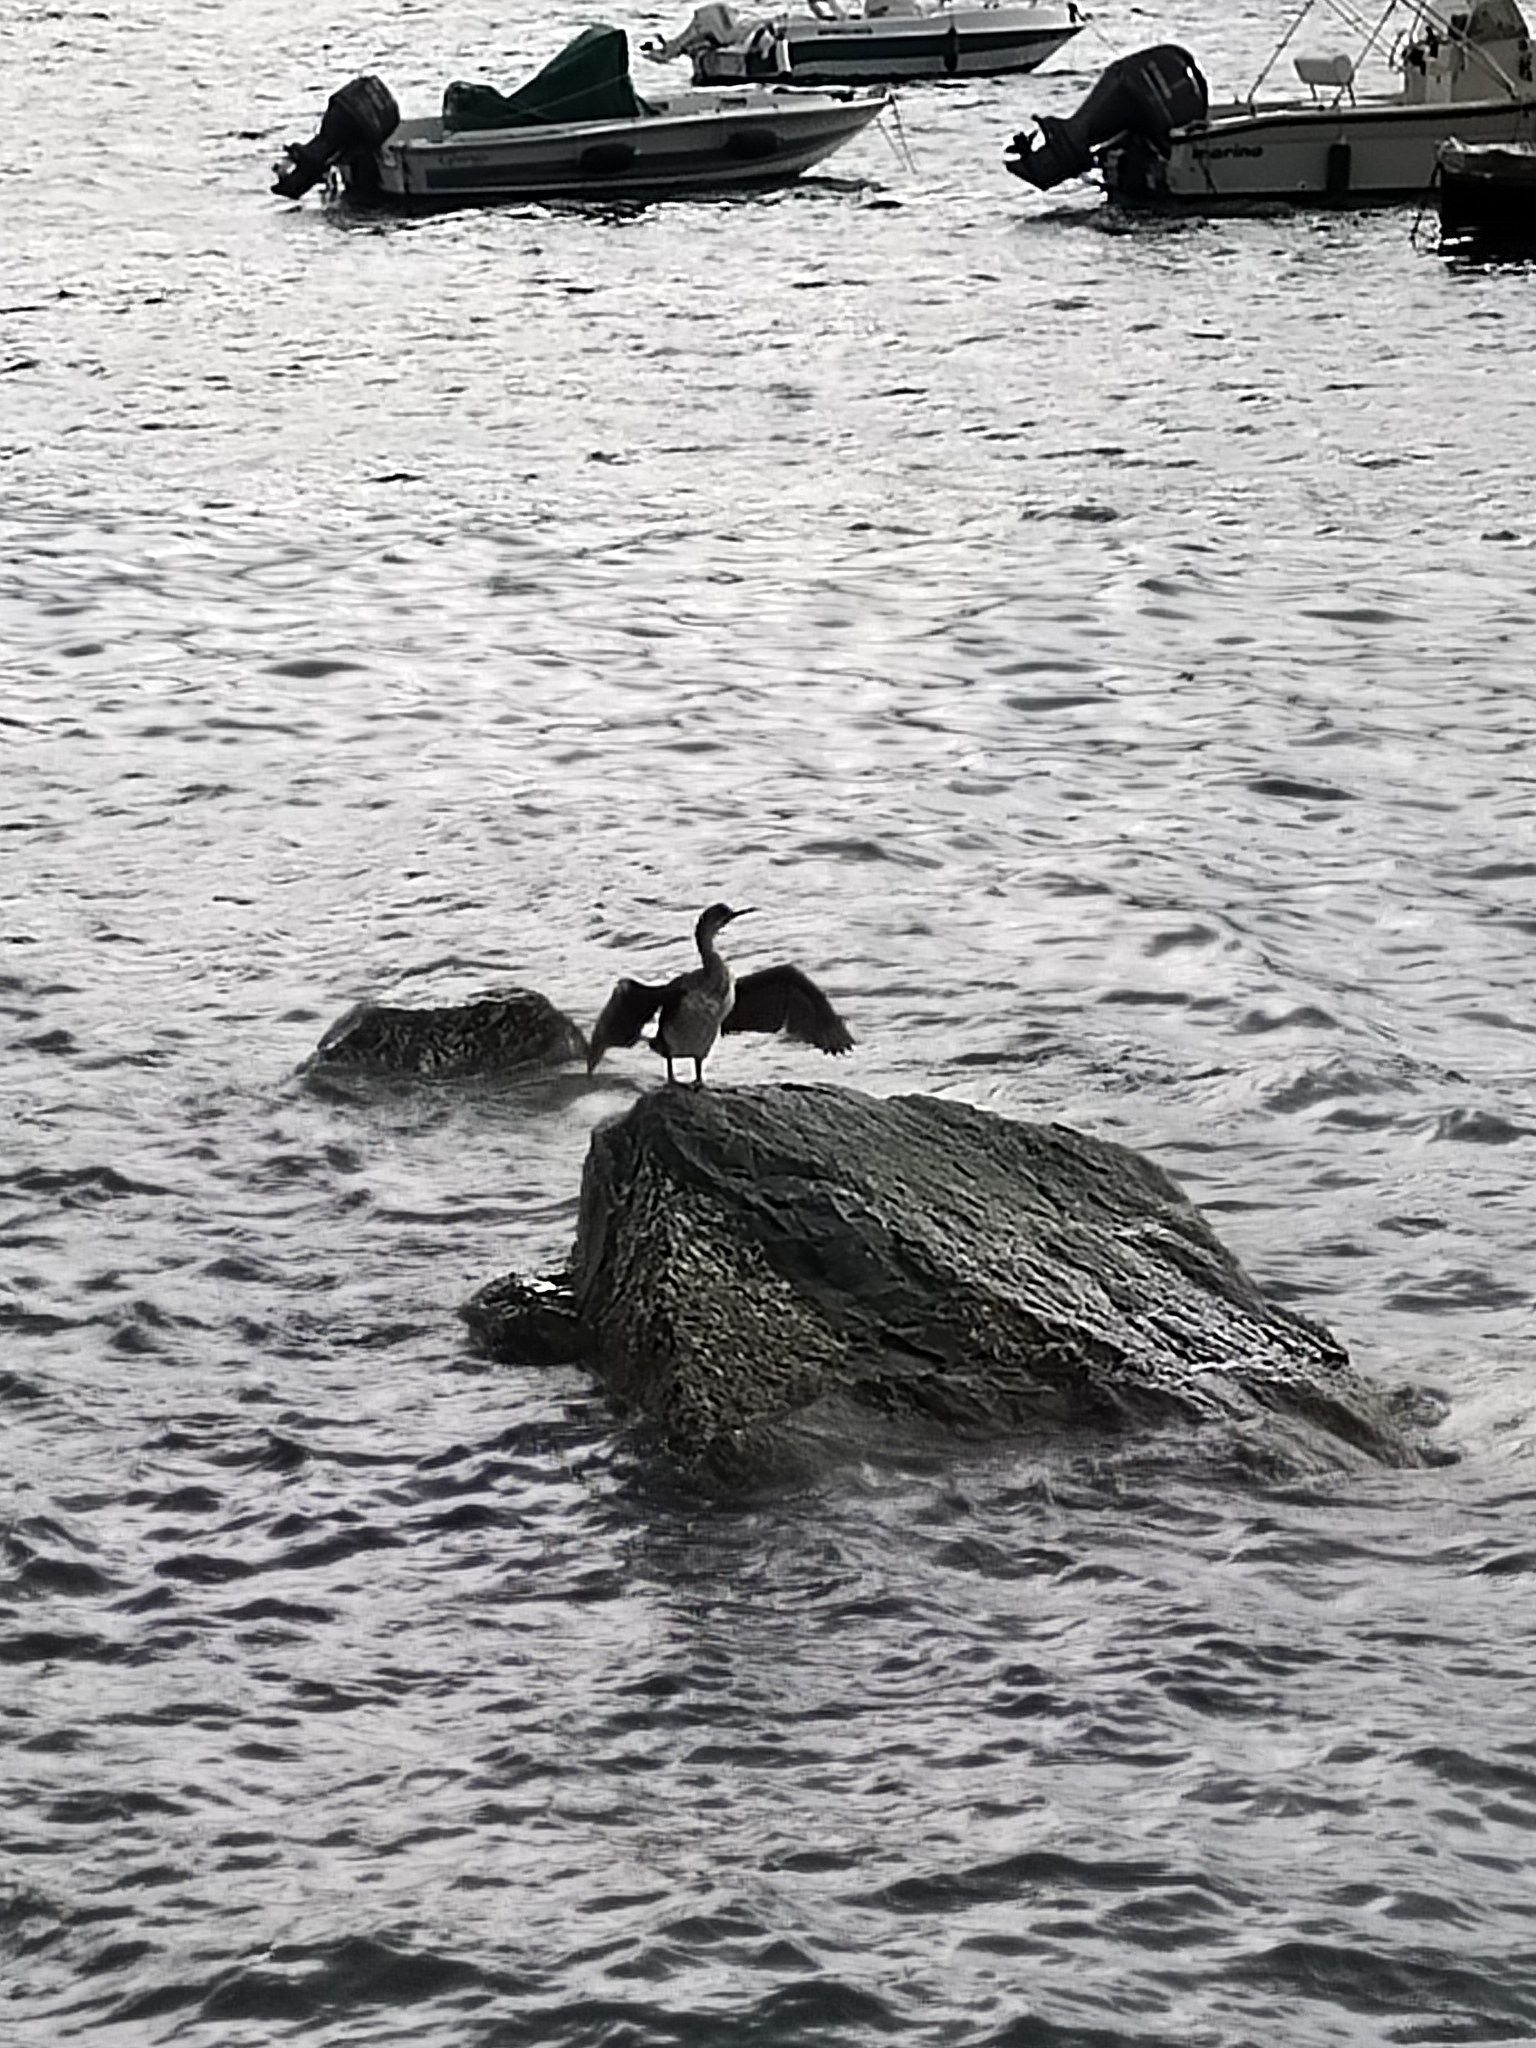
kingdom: Animalia
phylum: Chordata
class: Aves
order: Suliformes
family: Phalacrocoracidae
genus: Phalacrocorax
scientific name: Phalacrocorax aristotelis
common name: European shag
